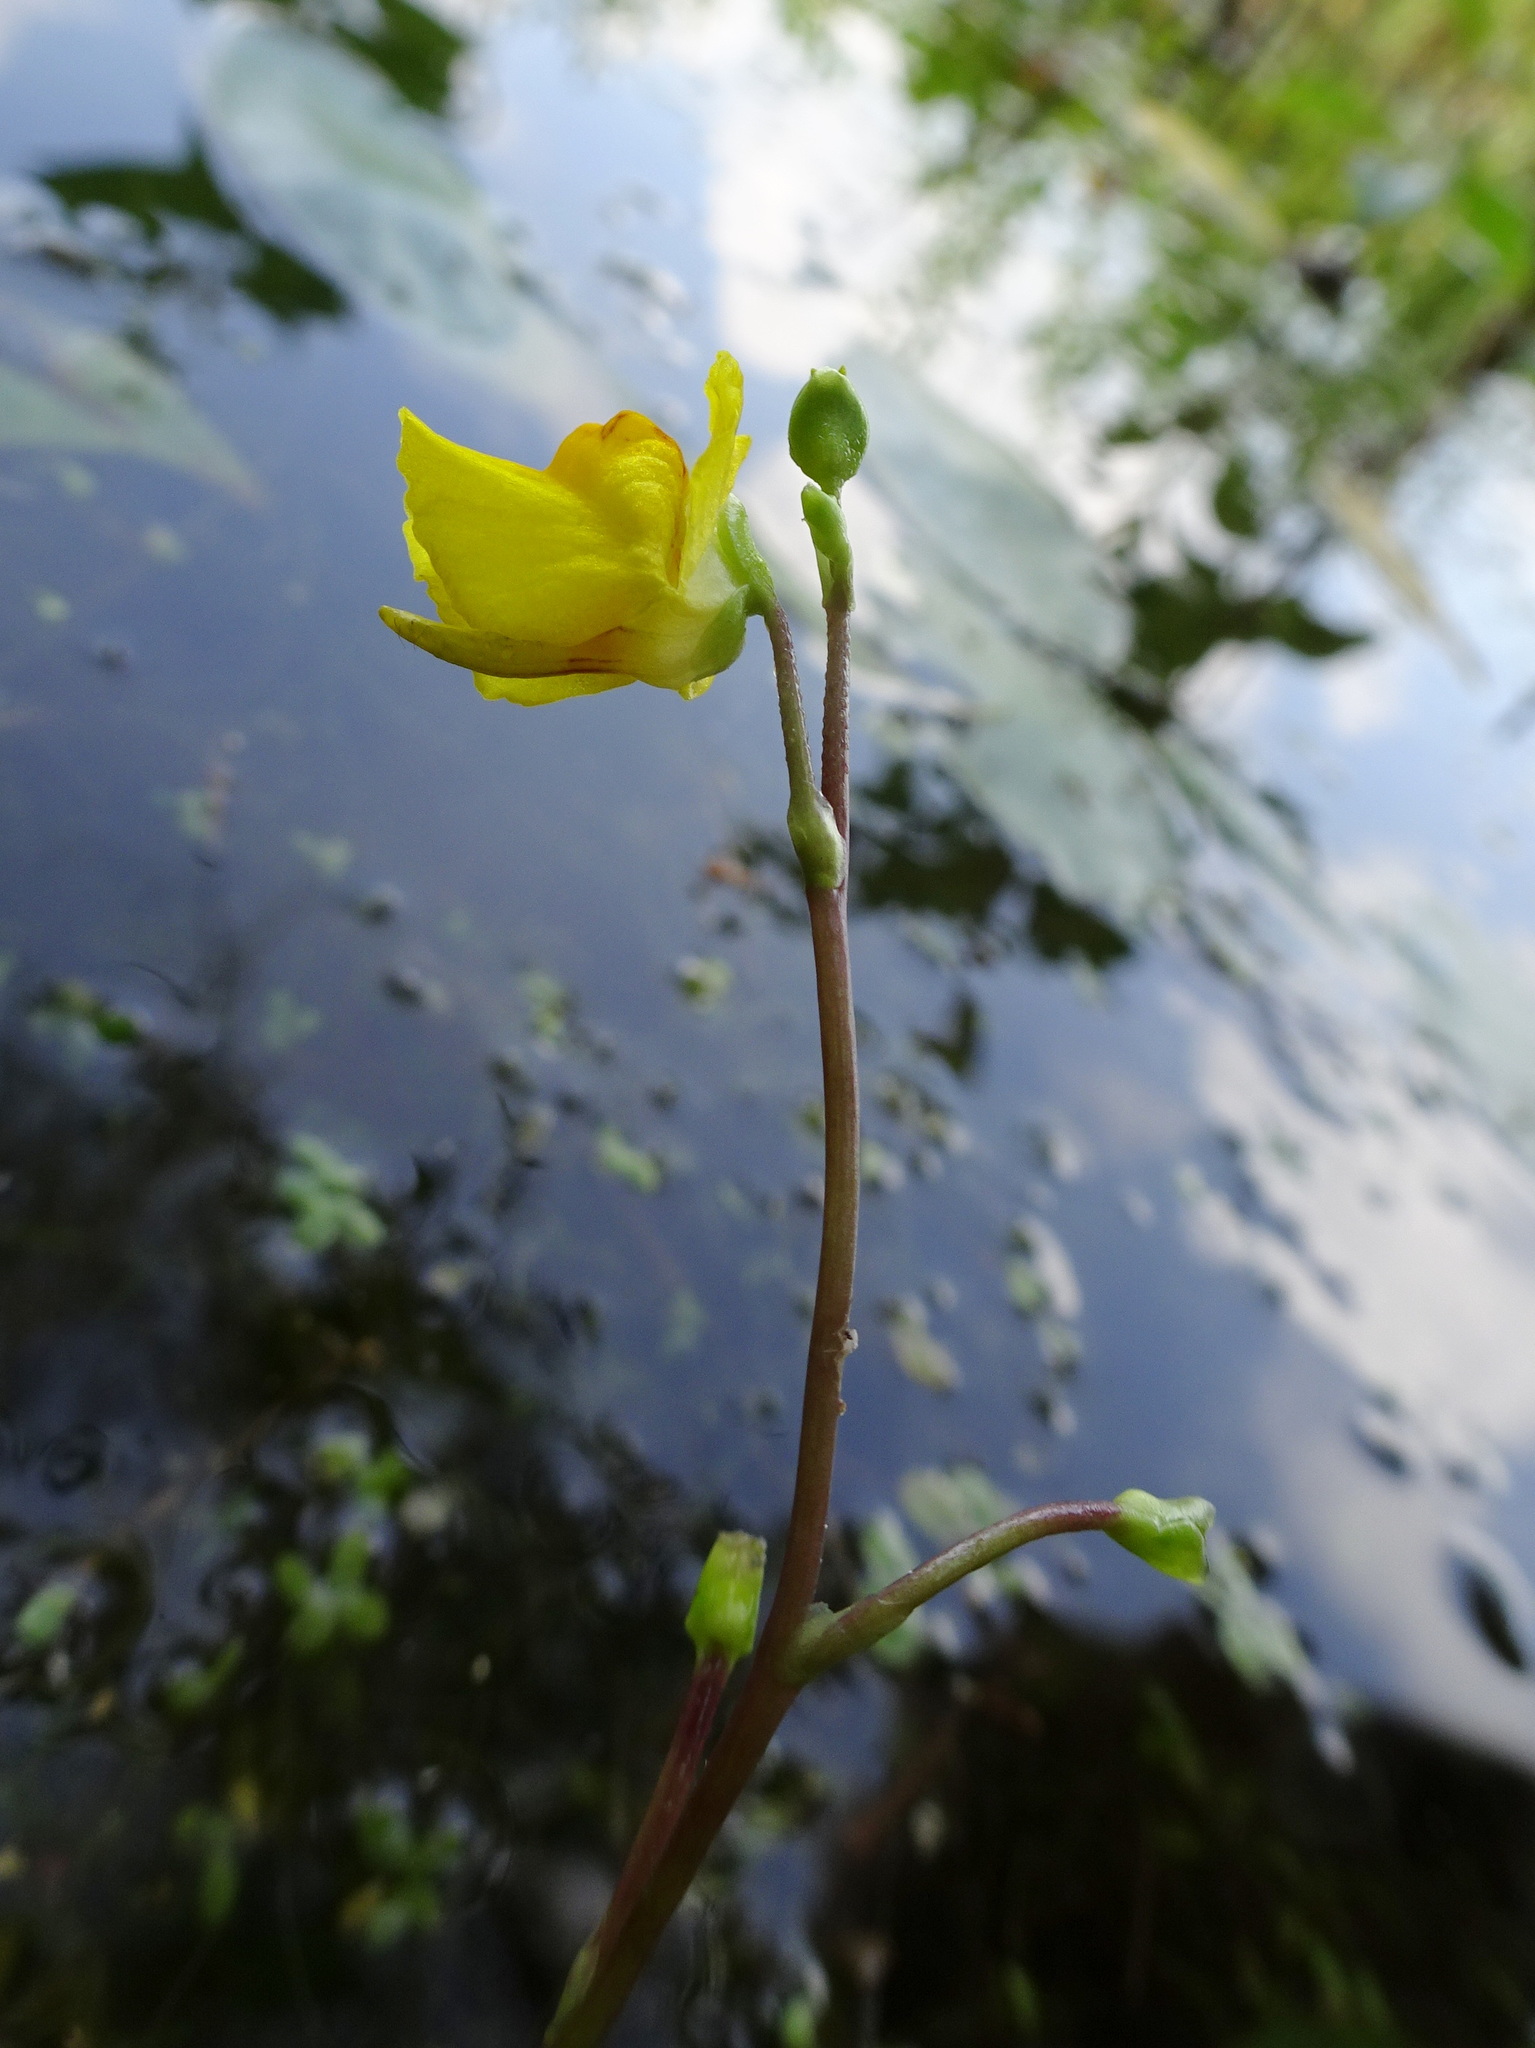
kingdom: Plantae
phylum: Tracheophyta
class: Magnoliopsida
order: Lamiales
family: Lentibulariaceae
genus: Utricularia
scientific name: Utricularia macrorhiza
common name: Common bladderwort
